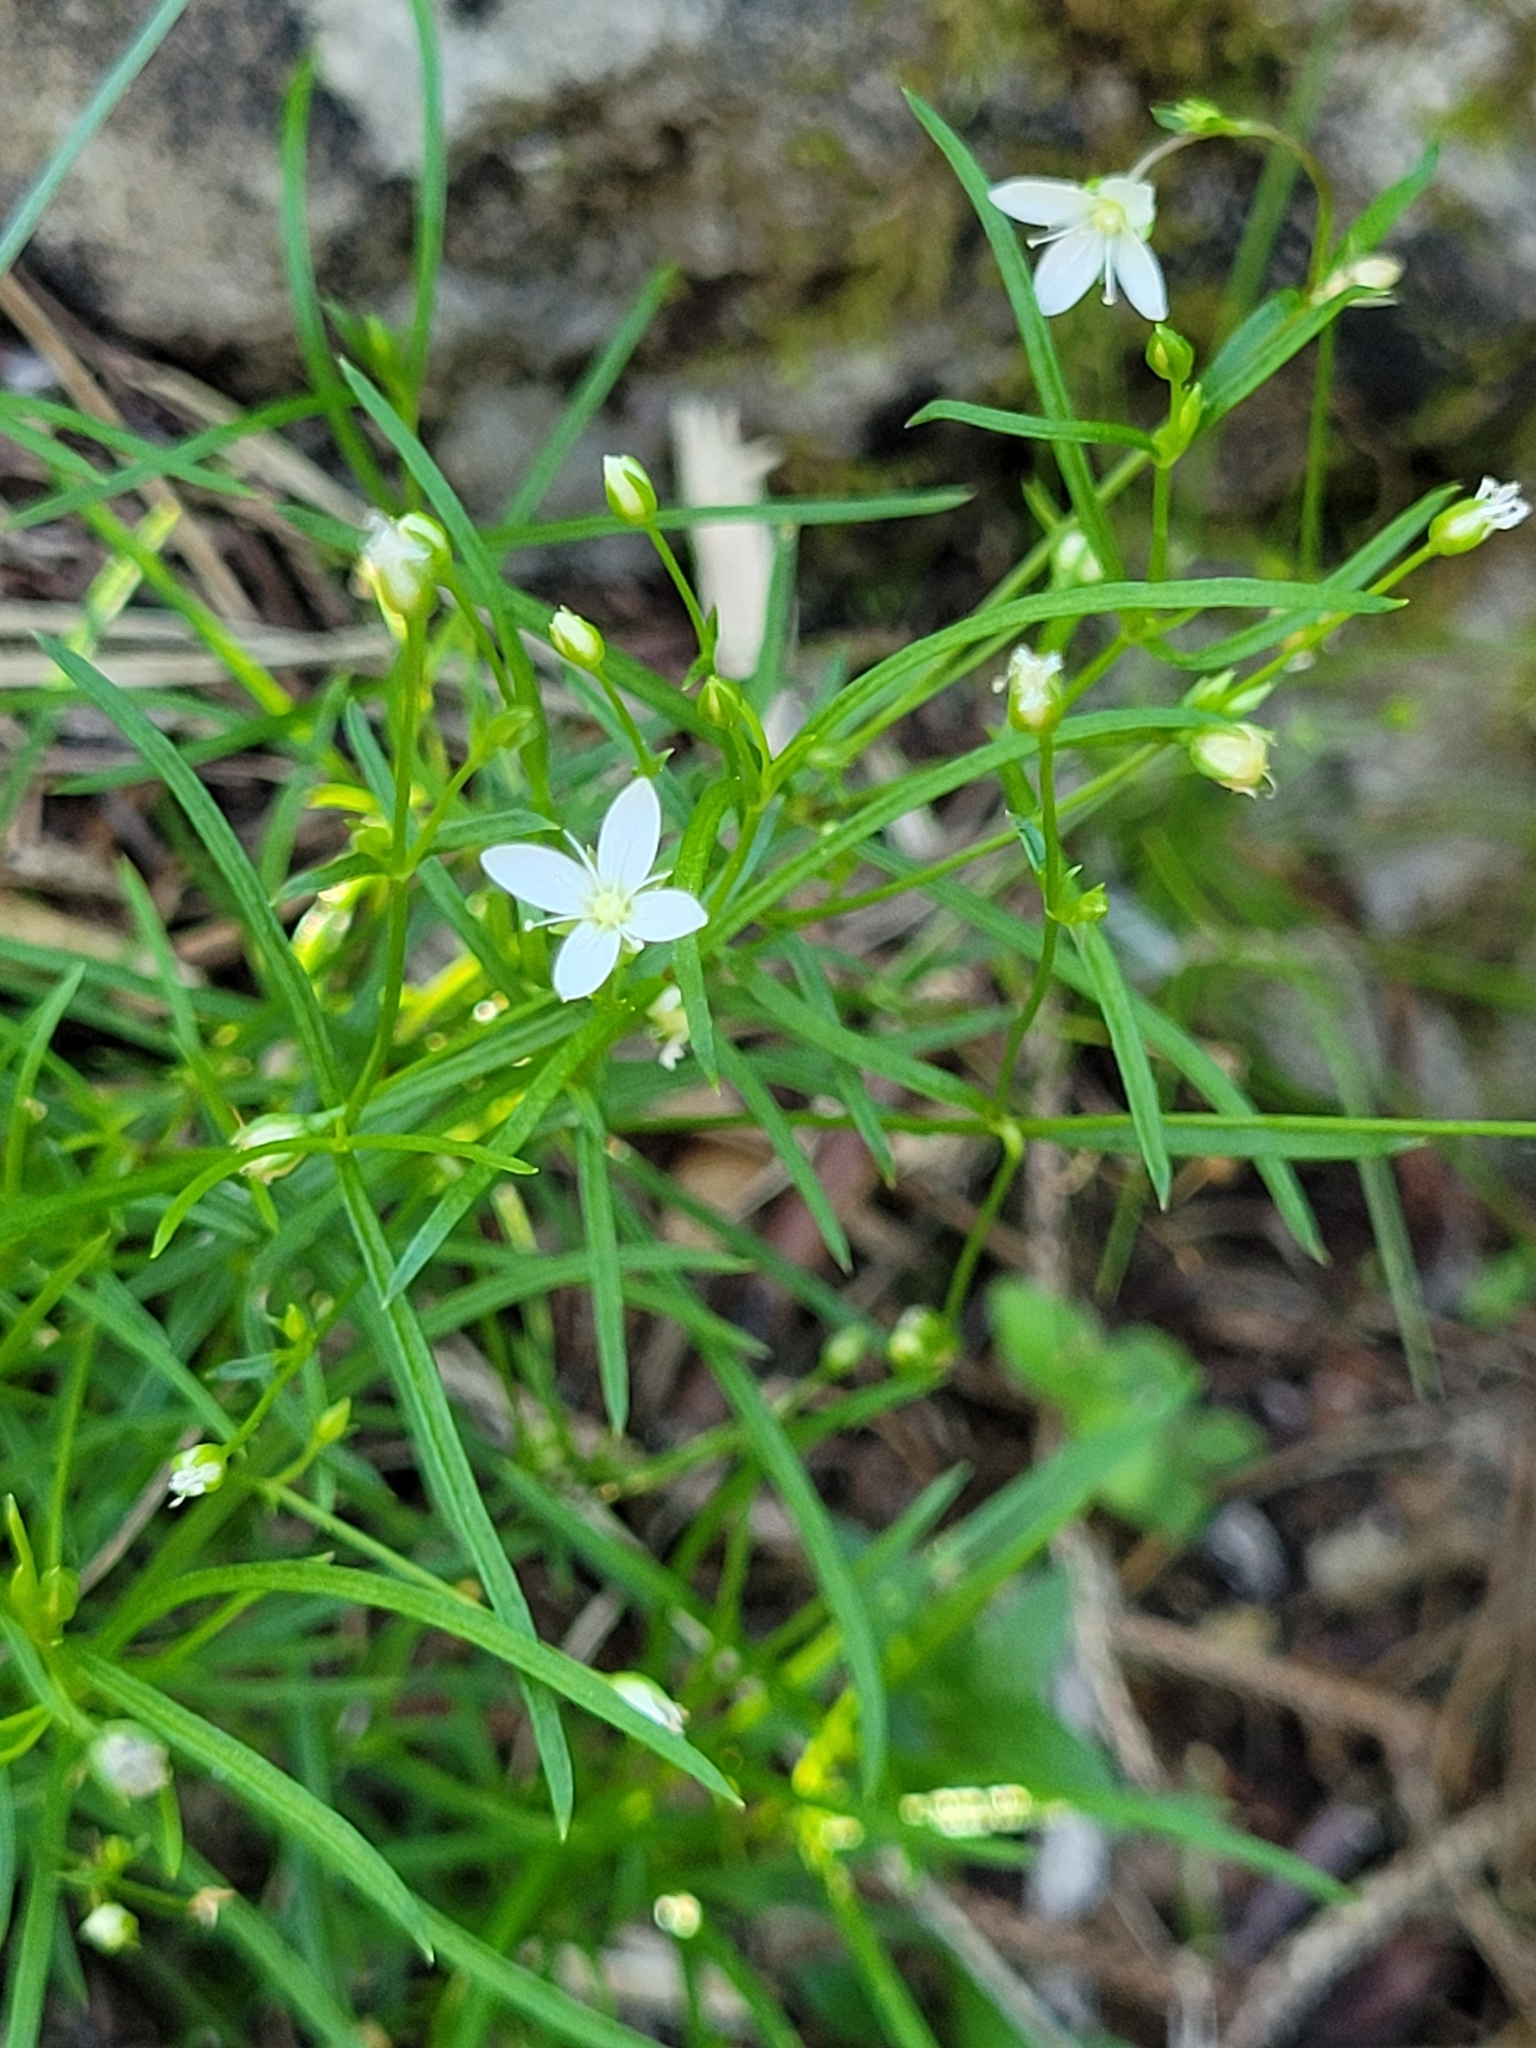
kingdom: Plantae
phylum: Tracheophyta
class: Magnoliopsida
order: Caryophyllales
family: Caryophyllaceae
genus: Moehringia
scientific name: Moehringia muscosa
